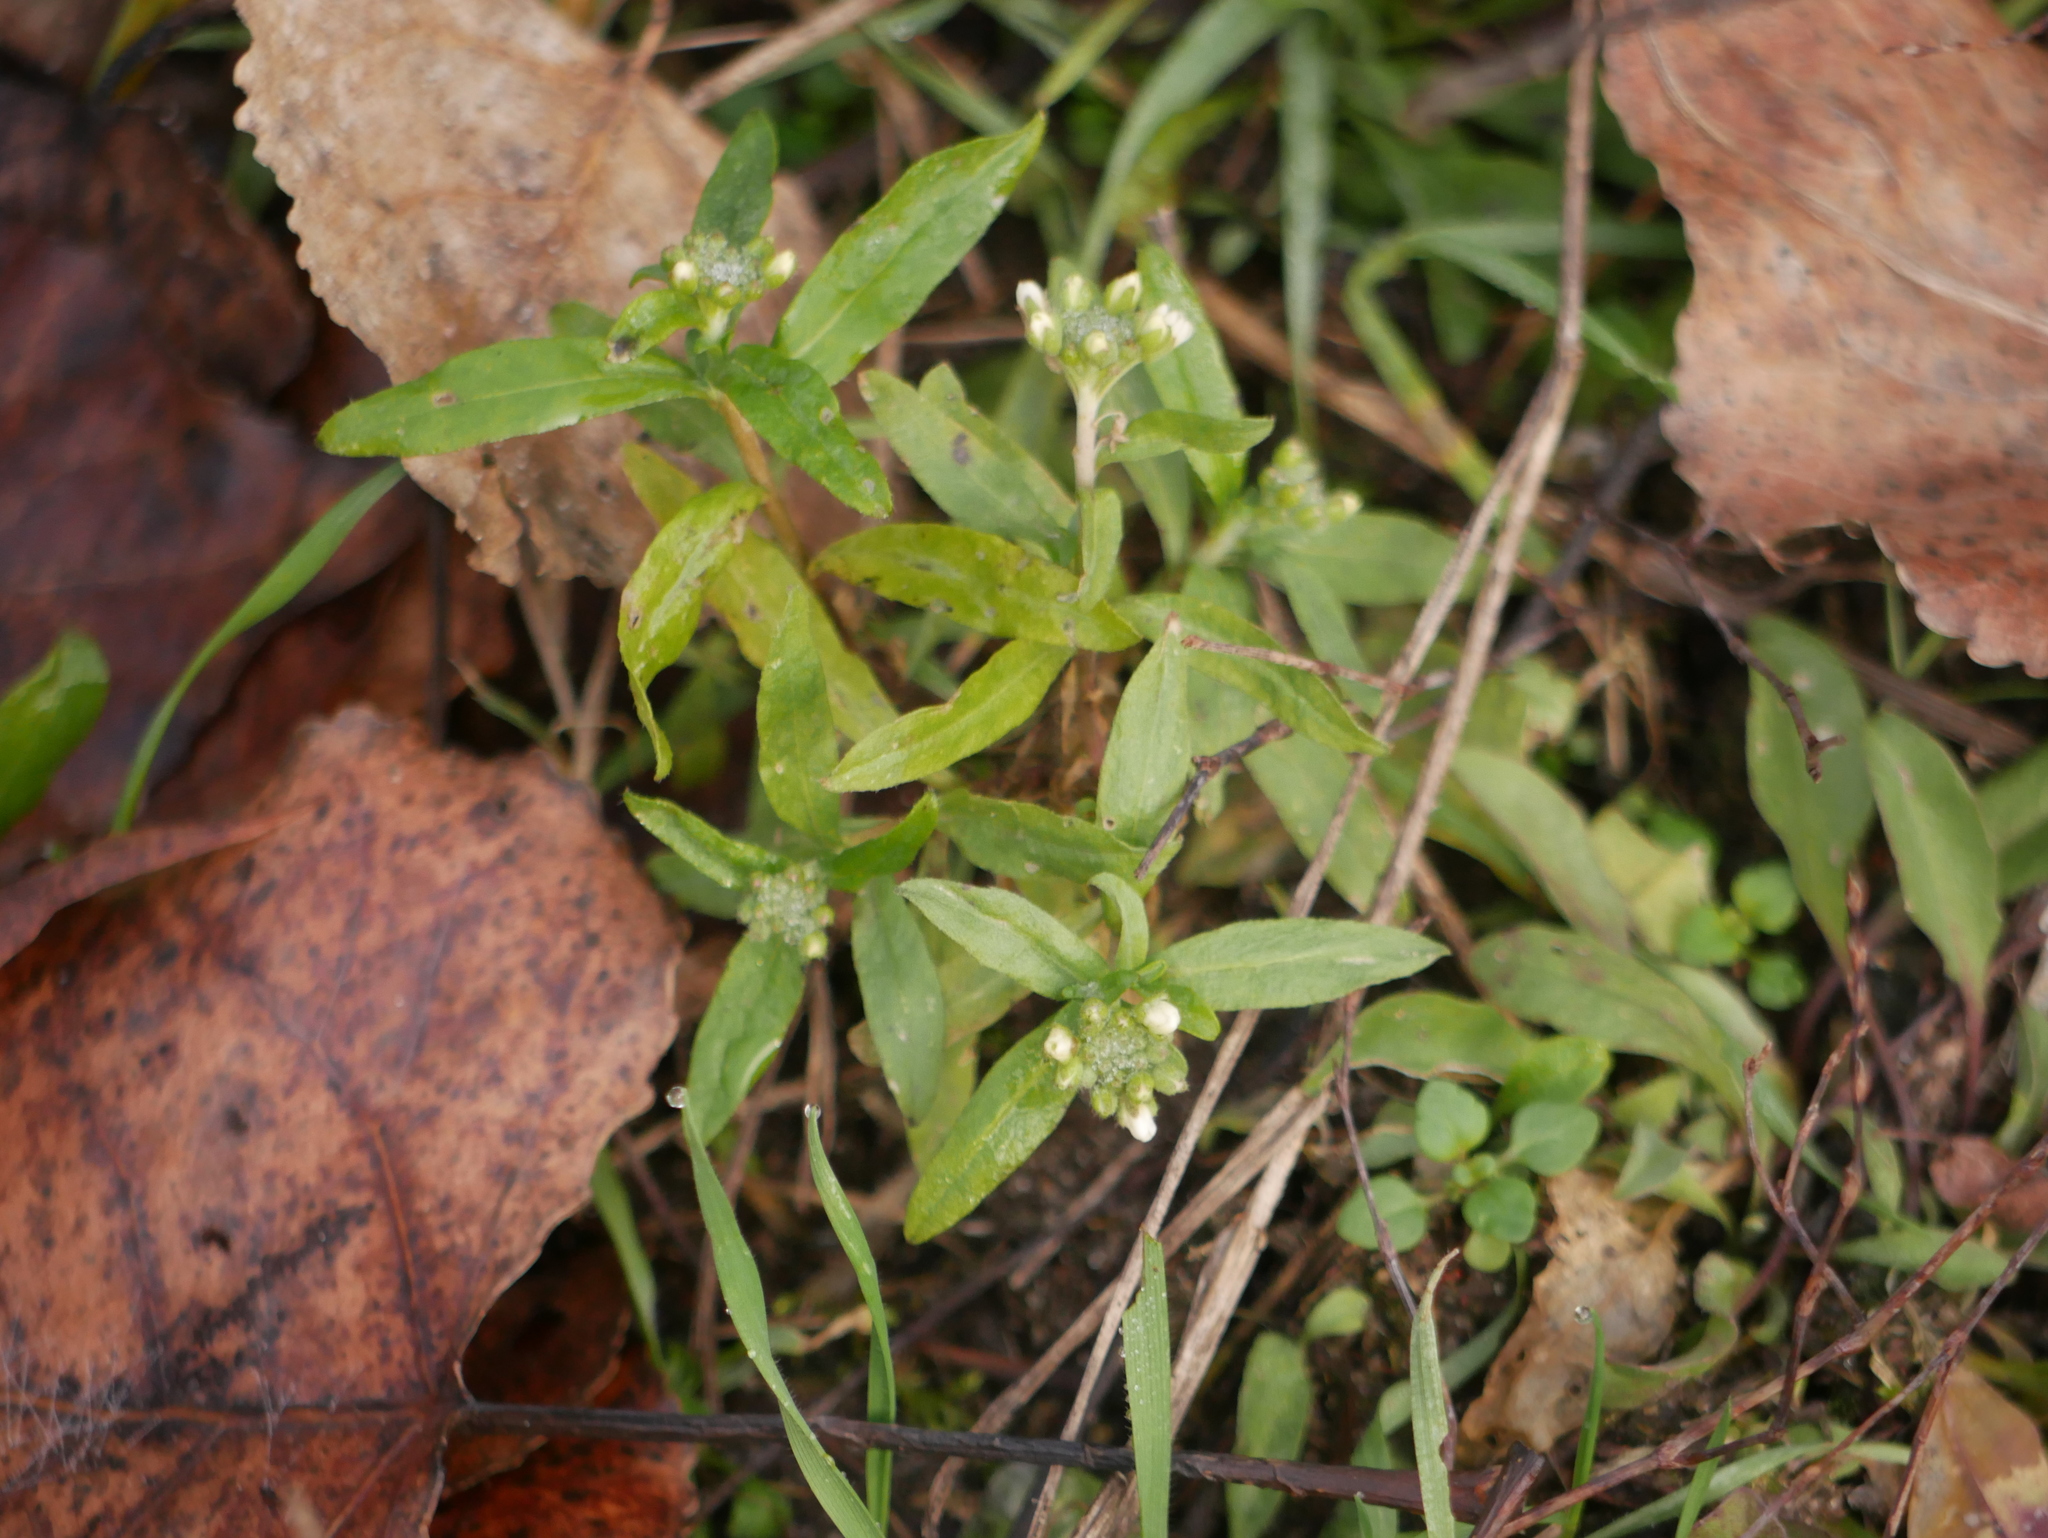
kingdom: Plantae
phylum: Tracheophyta
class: Magnoliopsida
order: Brassicales
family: Brassicaceae
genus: Berteroa
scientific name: Berteroa incana
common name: Hoary alison
